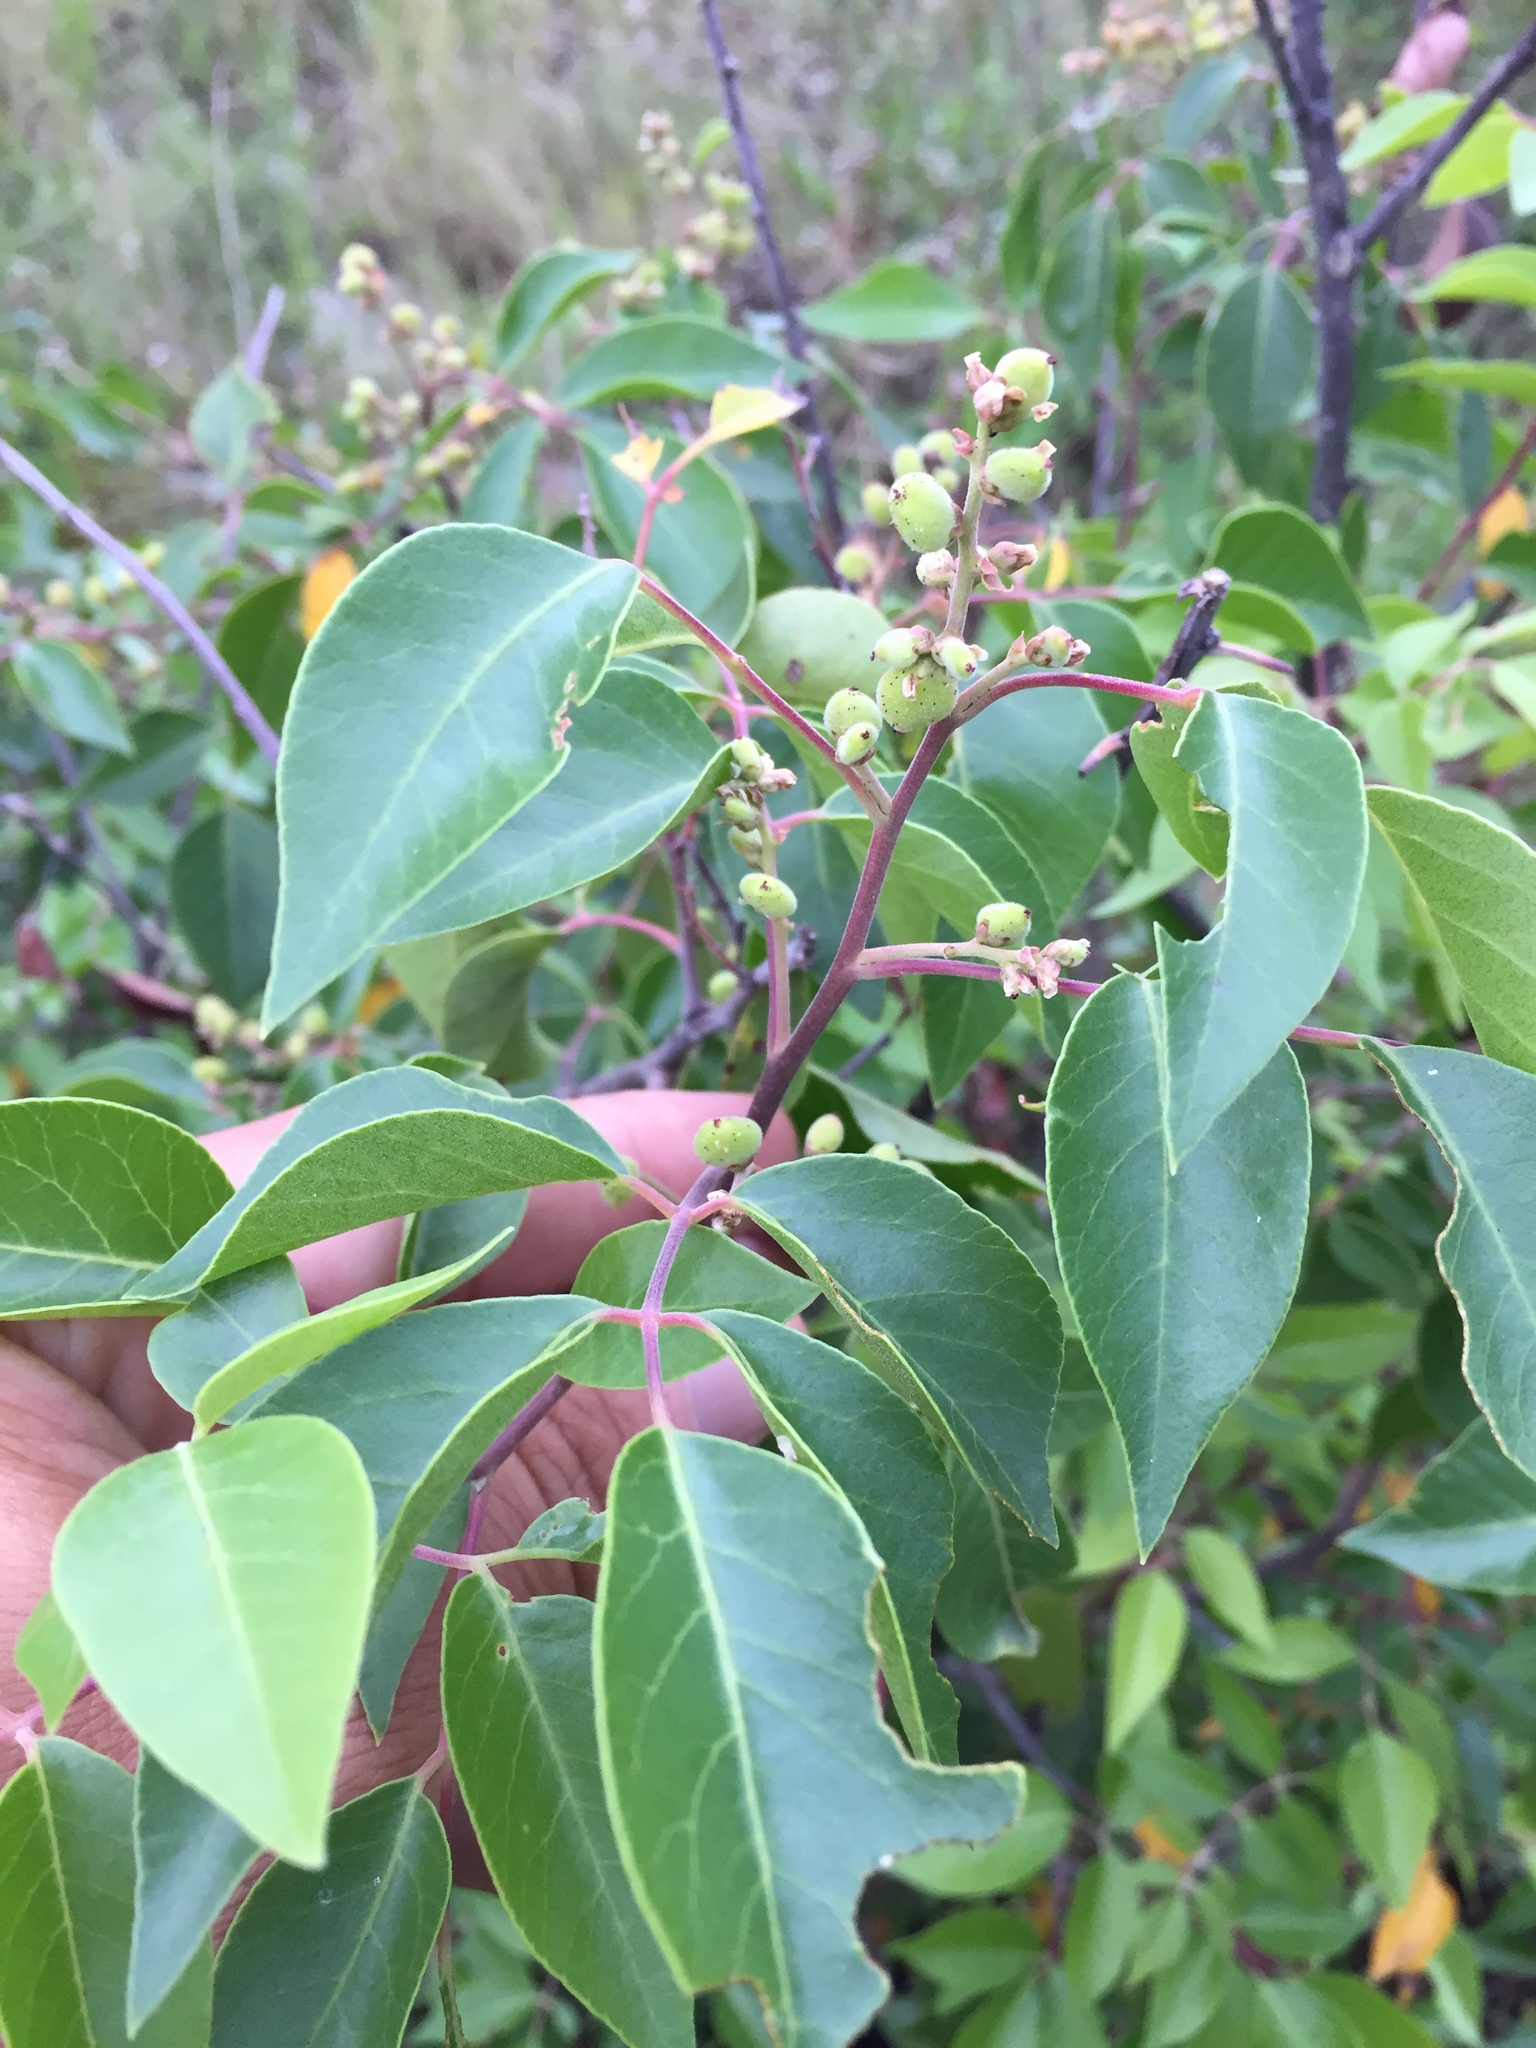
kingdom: Plantae
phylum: Tracheophyta
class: Magnoliopsida
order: Sapindales
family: Anacardiaceae
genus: Rhus
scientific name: Rhus virens
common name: Evergreen sumac
